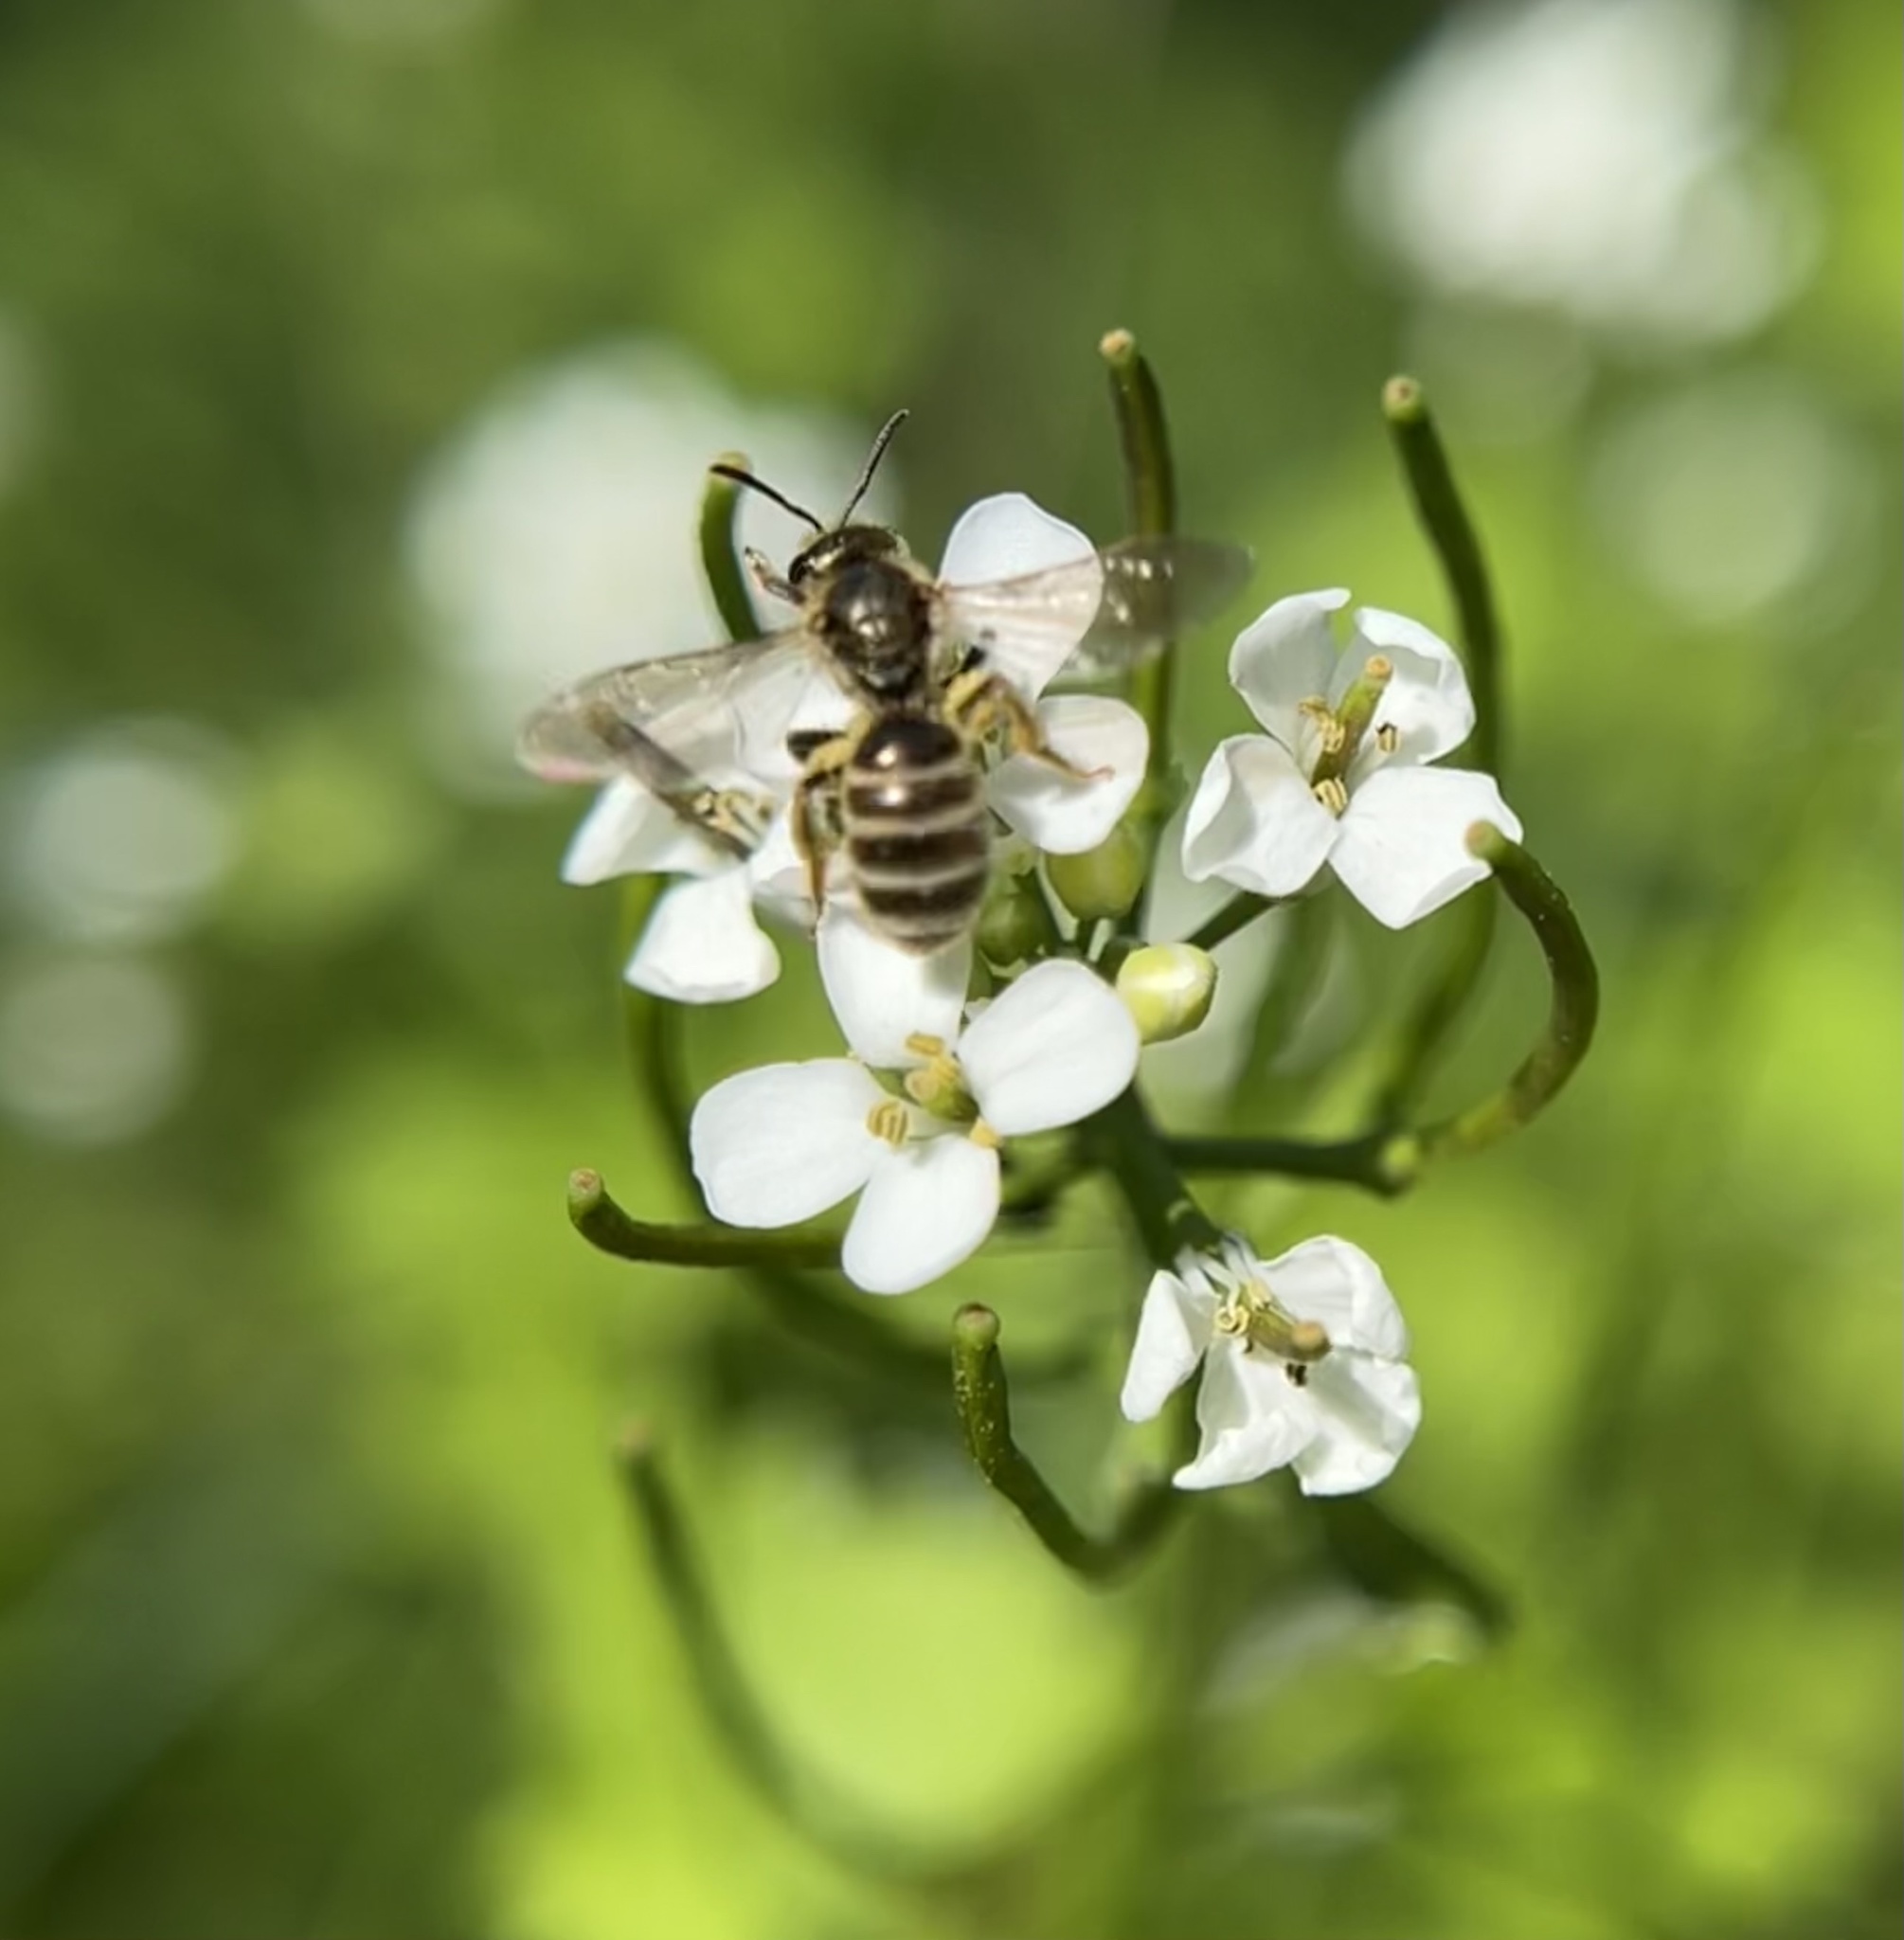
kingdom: Animalia
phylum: Arthropoda
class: Insecta
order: Hymenoptera
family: Halictidae
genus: Halictus
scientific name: Halictus confusus
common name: Southern bronze furrow bee
